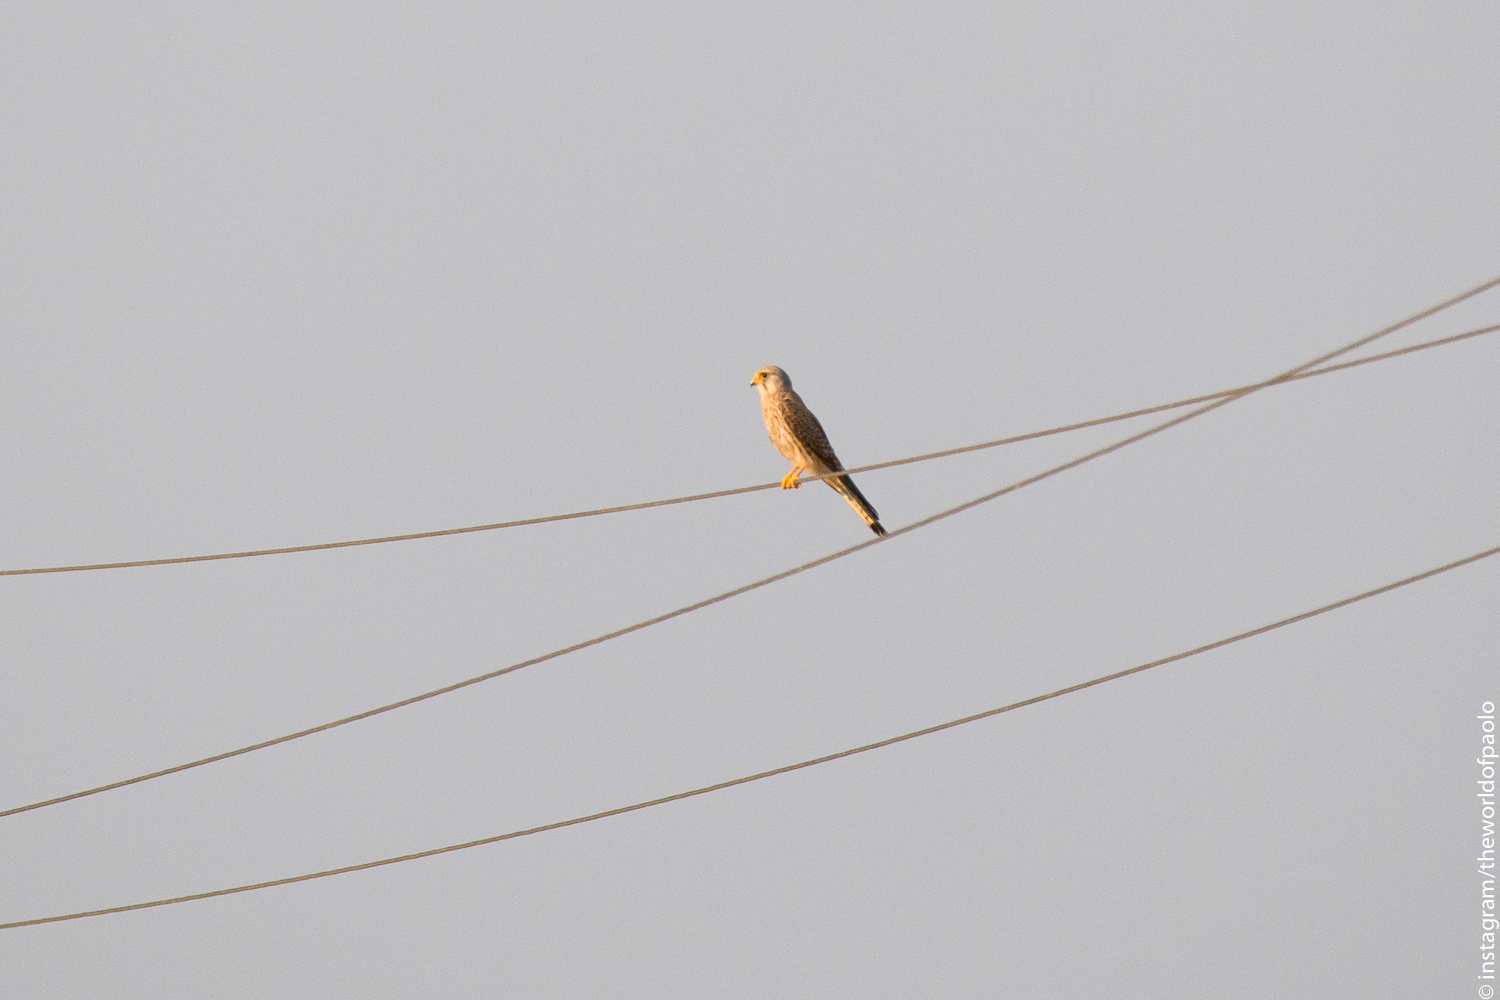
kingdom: Animalia
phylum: Chordata
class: Aves
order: Falconiformes
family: Falconidae
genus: Falco
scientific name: Falco tinnunculus
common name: Common kestrel
